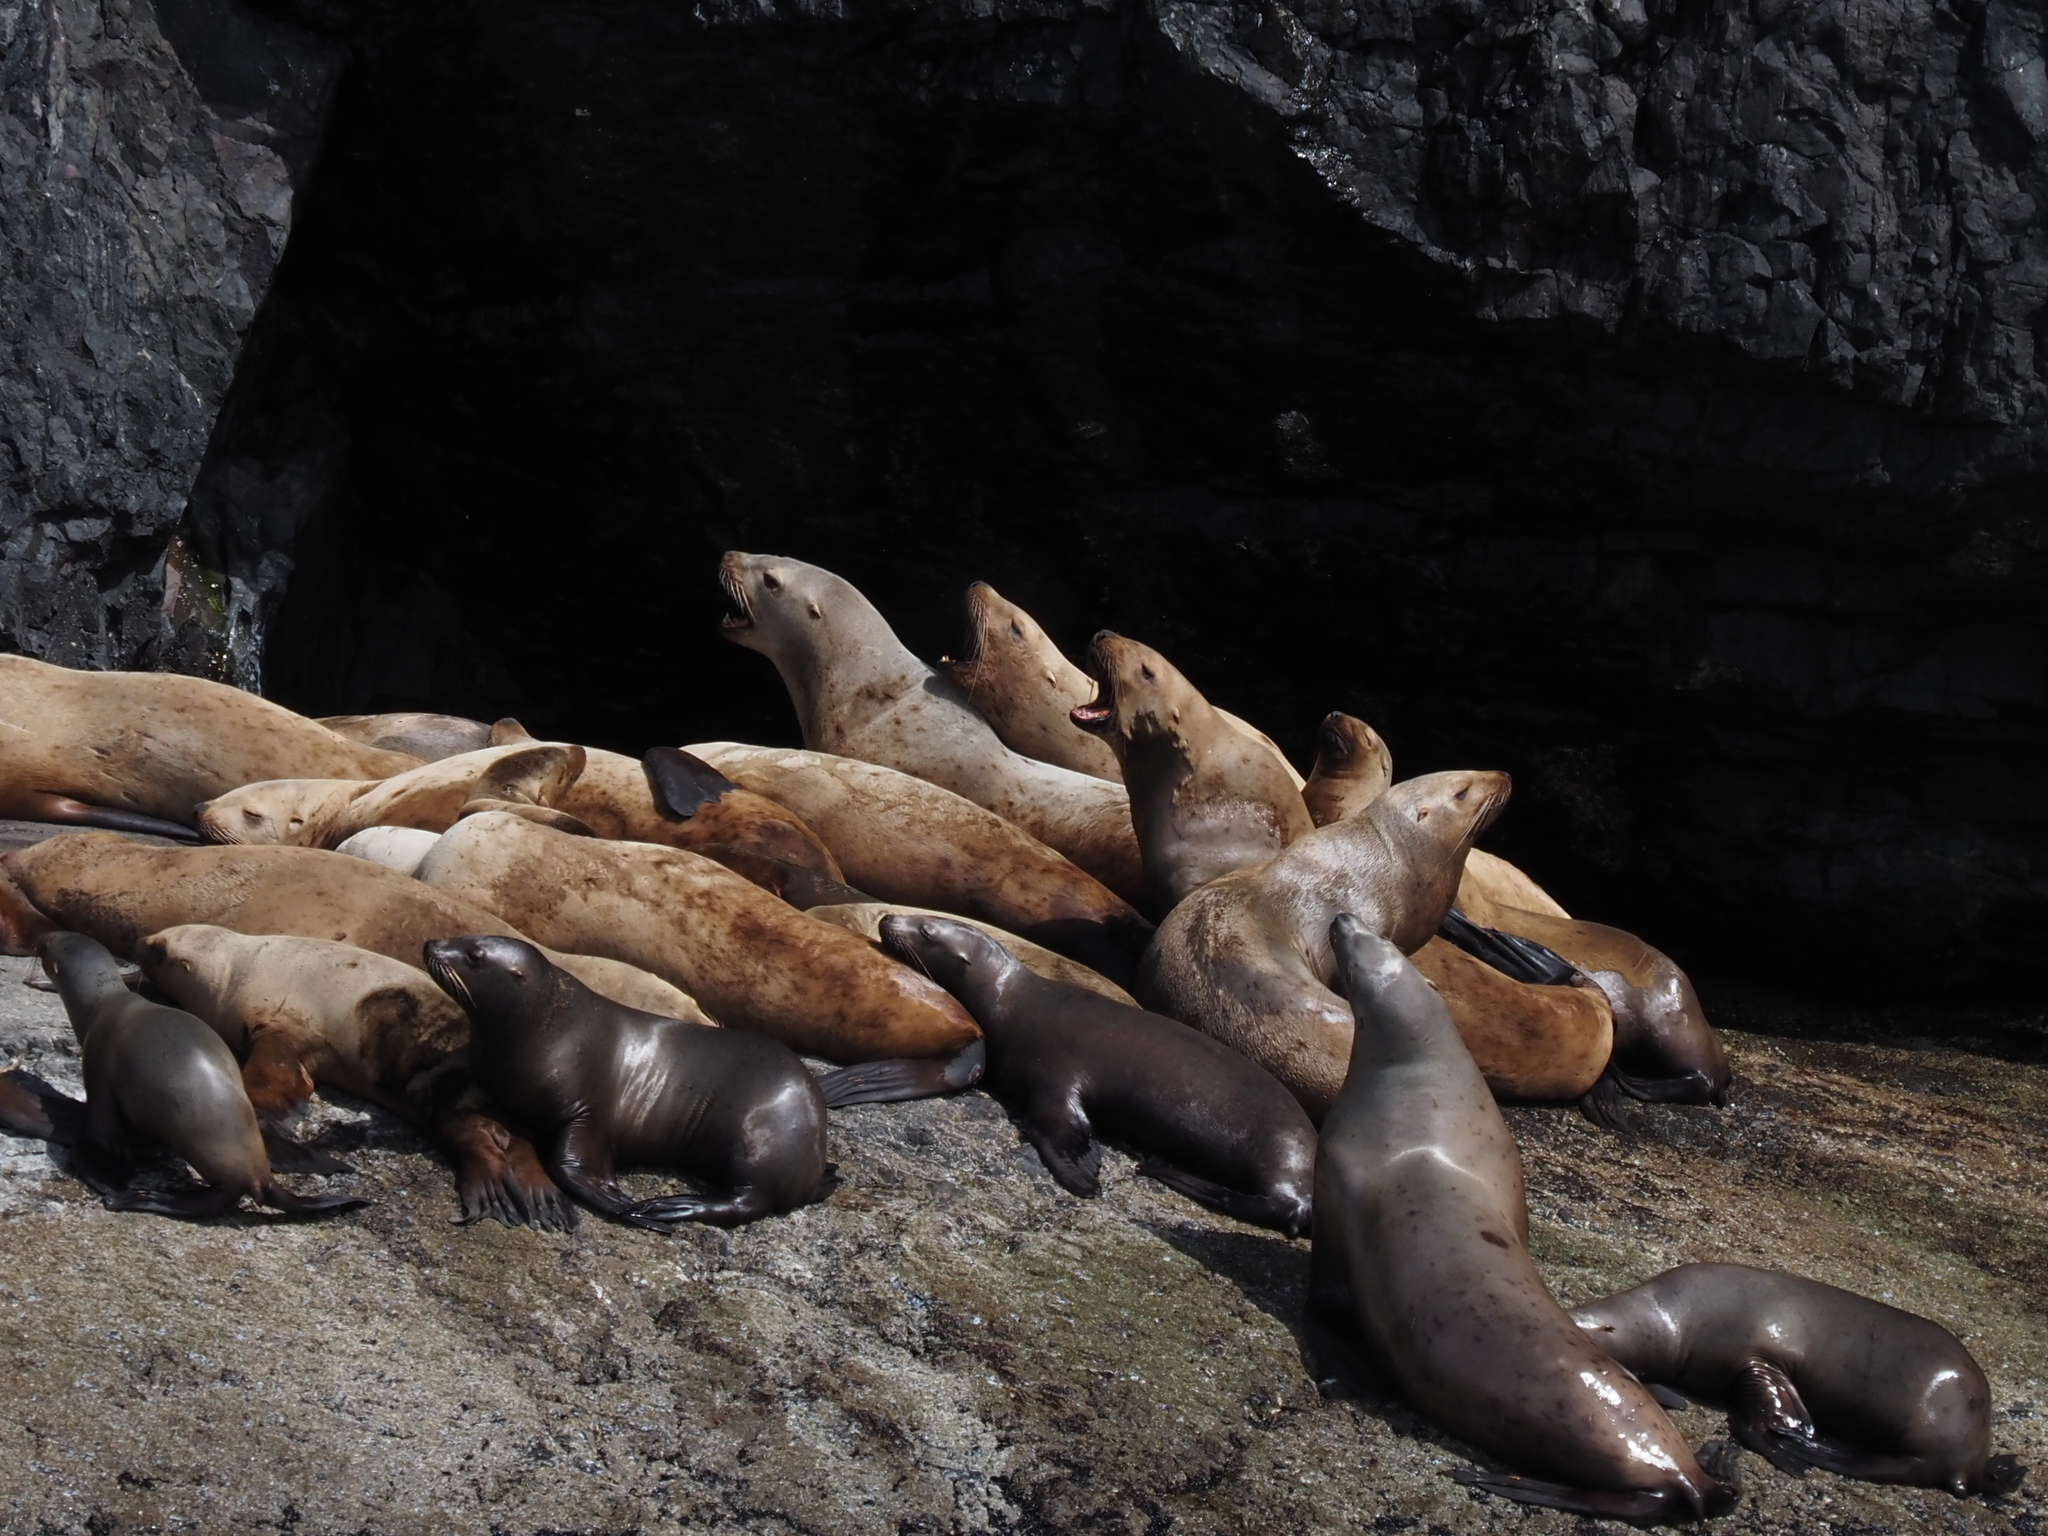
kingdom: Animalia
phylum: Chordata
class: Mammalia
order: Carnivora
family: Otariidae
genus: Eumetopias
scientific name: Eumetopias jubatus
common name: Steller sea lion
